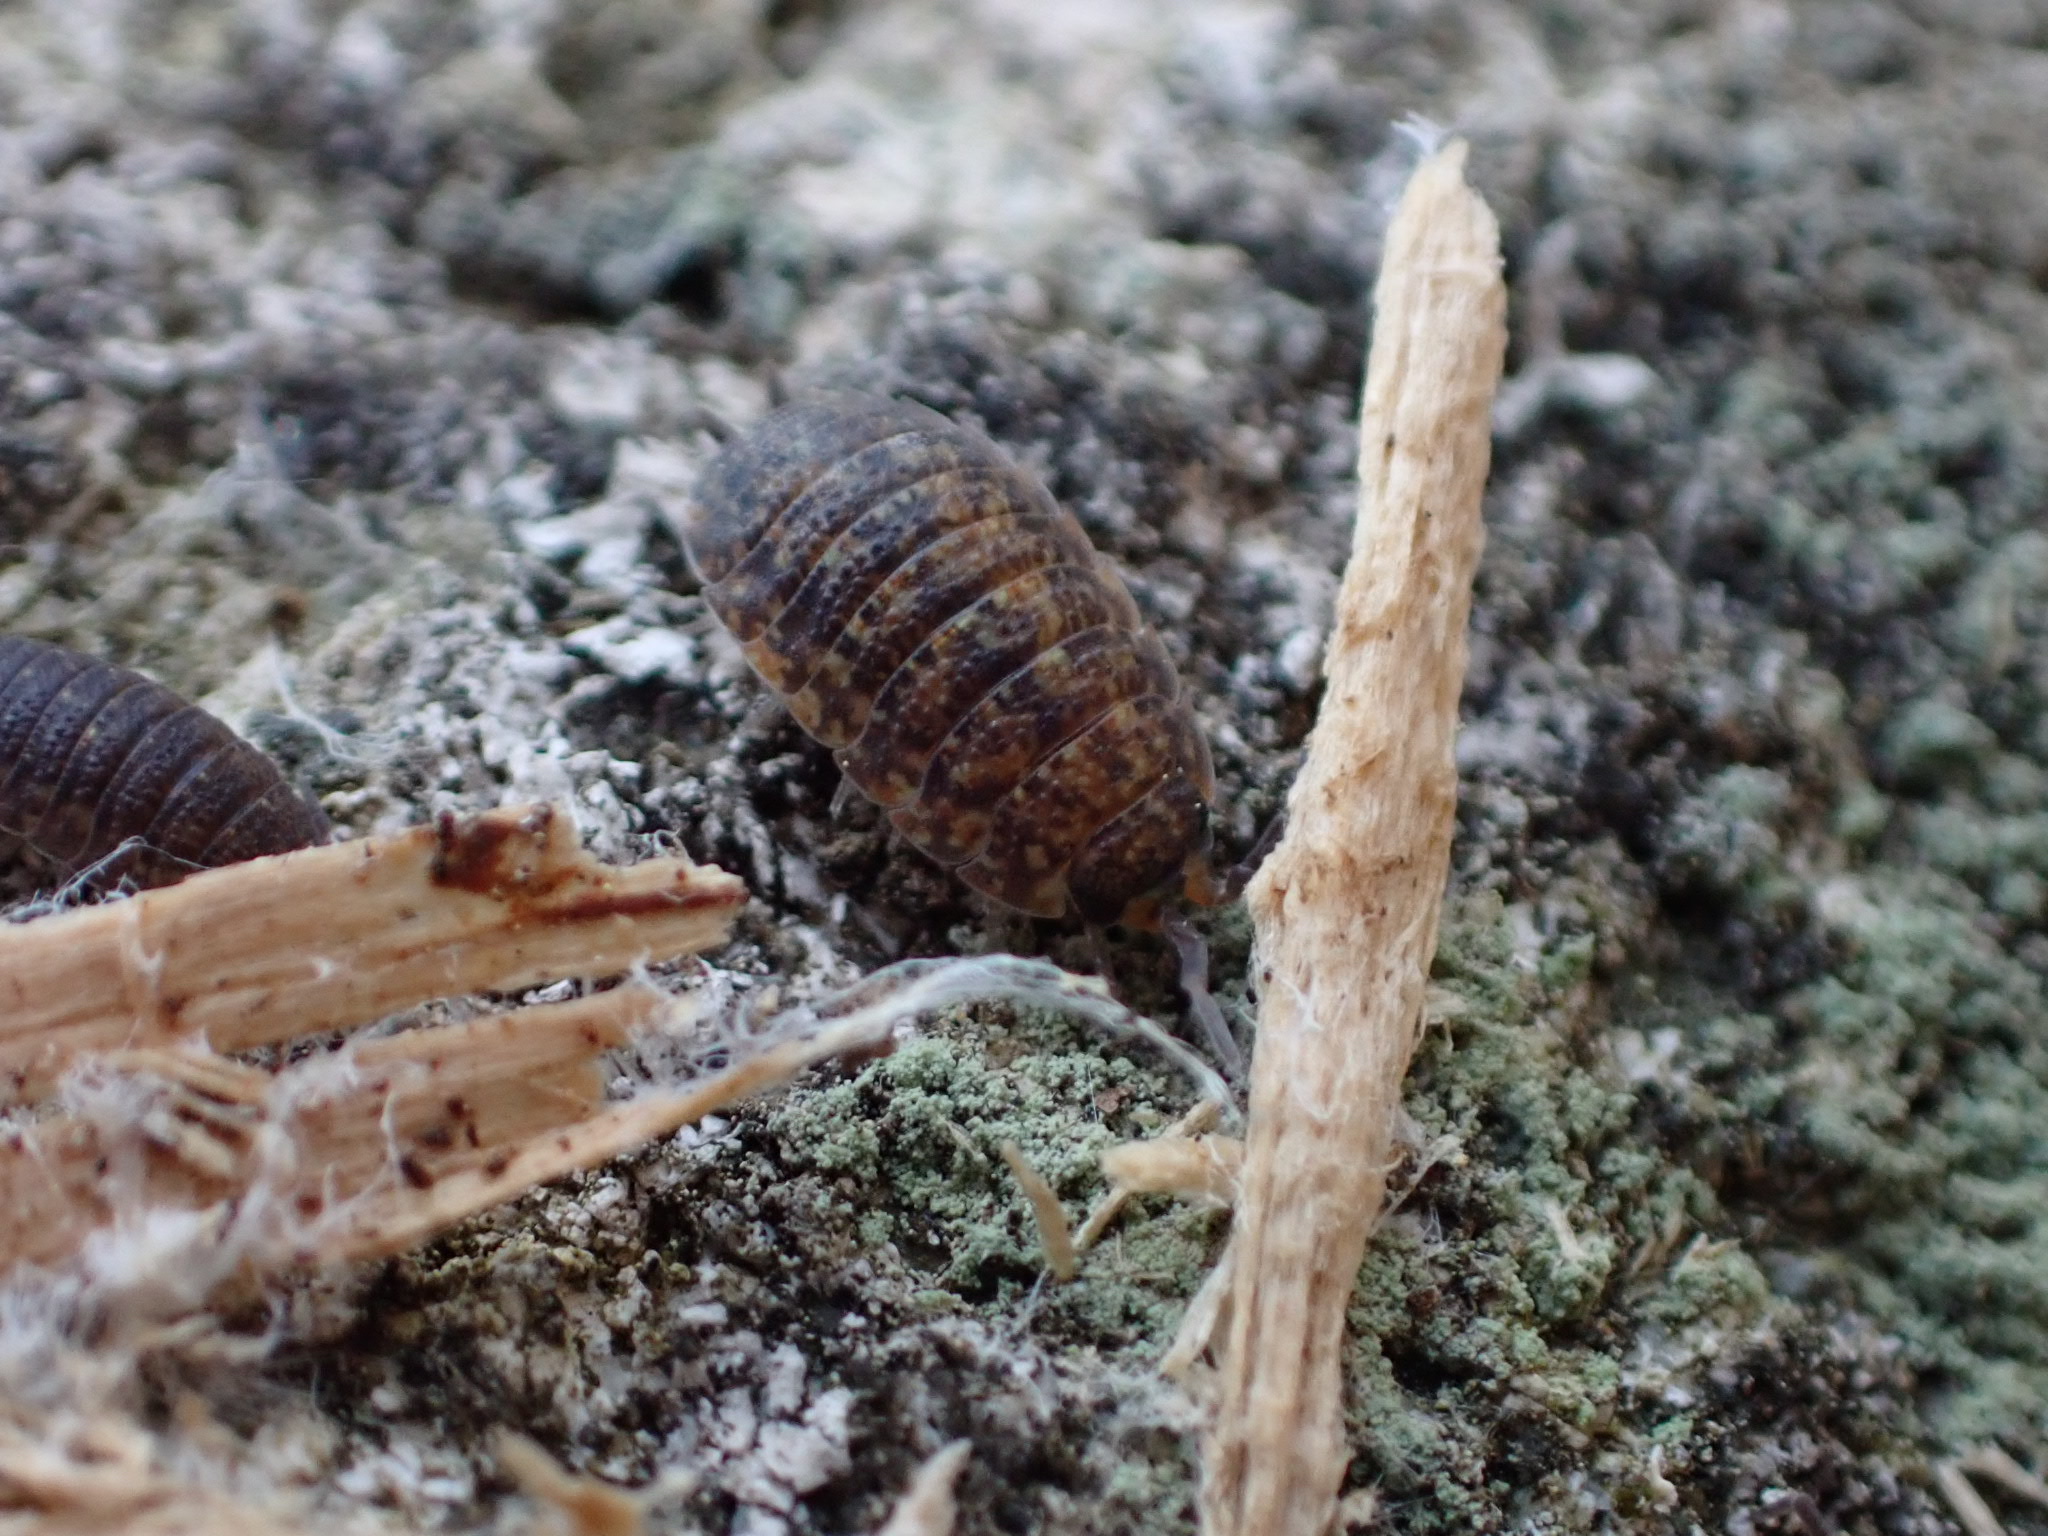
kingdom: Animalia
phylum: Arthropoda
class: Malacostraca
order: Isopoda
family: Porcellionidae
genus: Porcellio
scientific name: Porcellio scaber
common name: Common rough woodlouse
